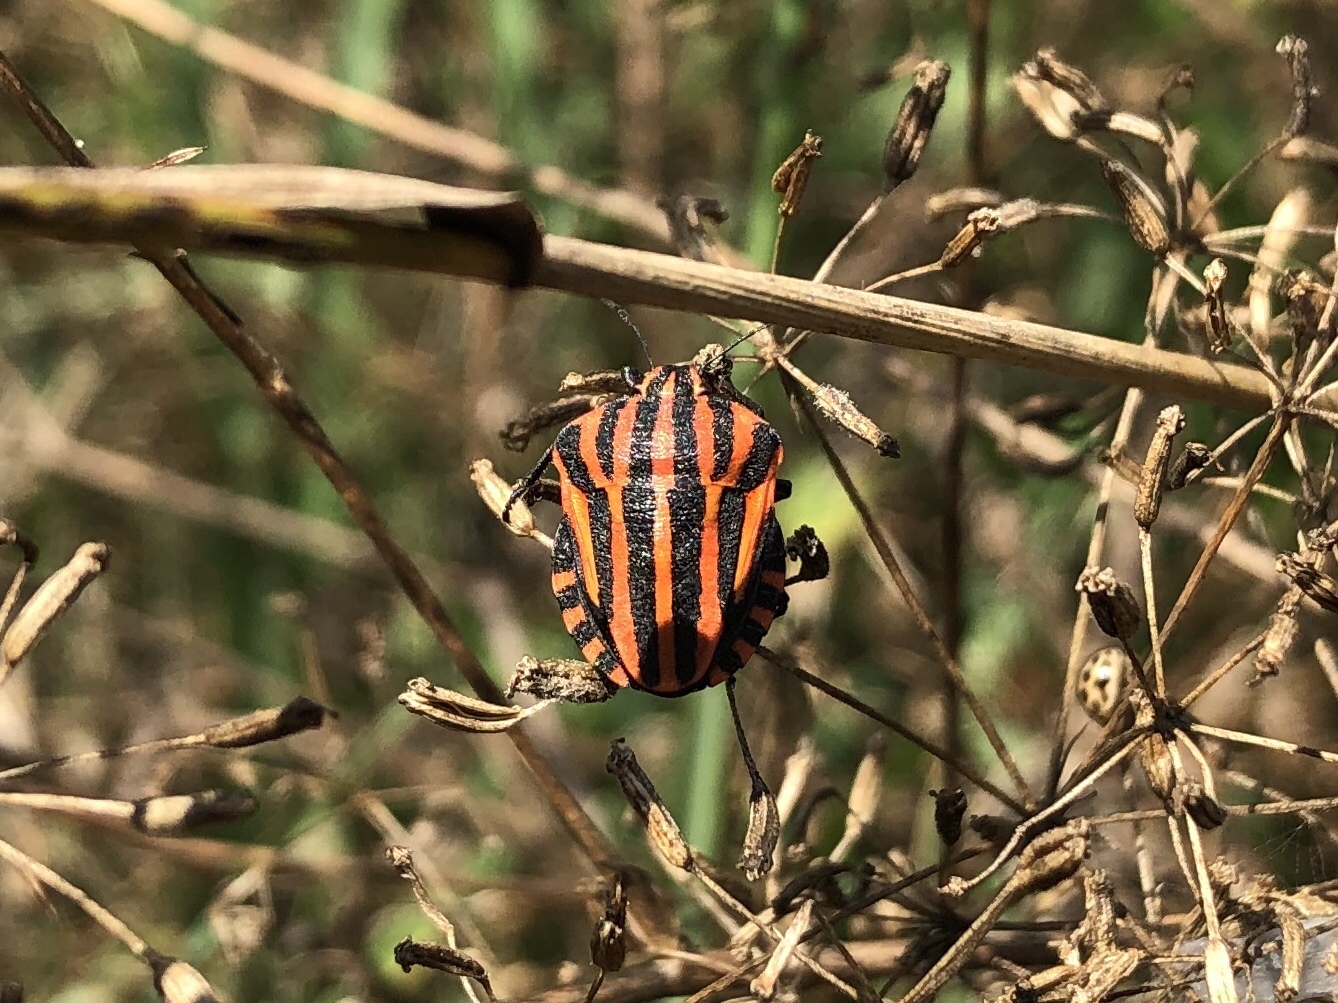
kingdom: Animalia
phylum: Arthropoda
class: Insecta
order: Hemiptera
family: Pentatomidae
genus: Graphosoma
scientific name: Graphosoma italicum
